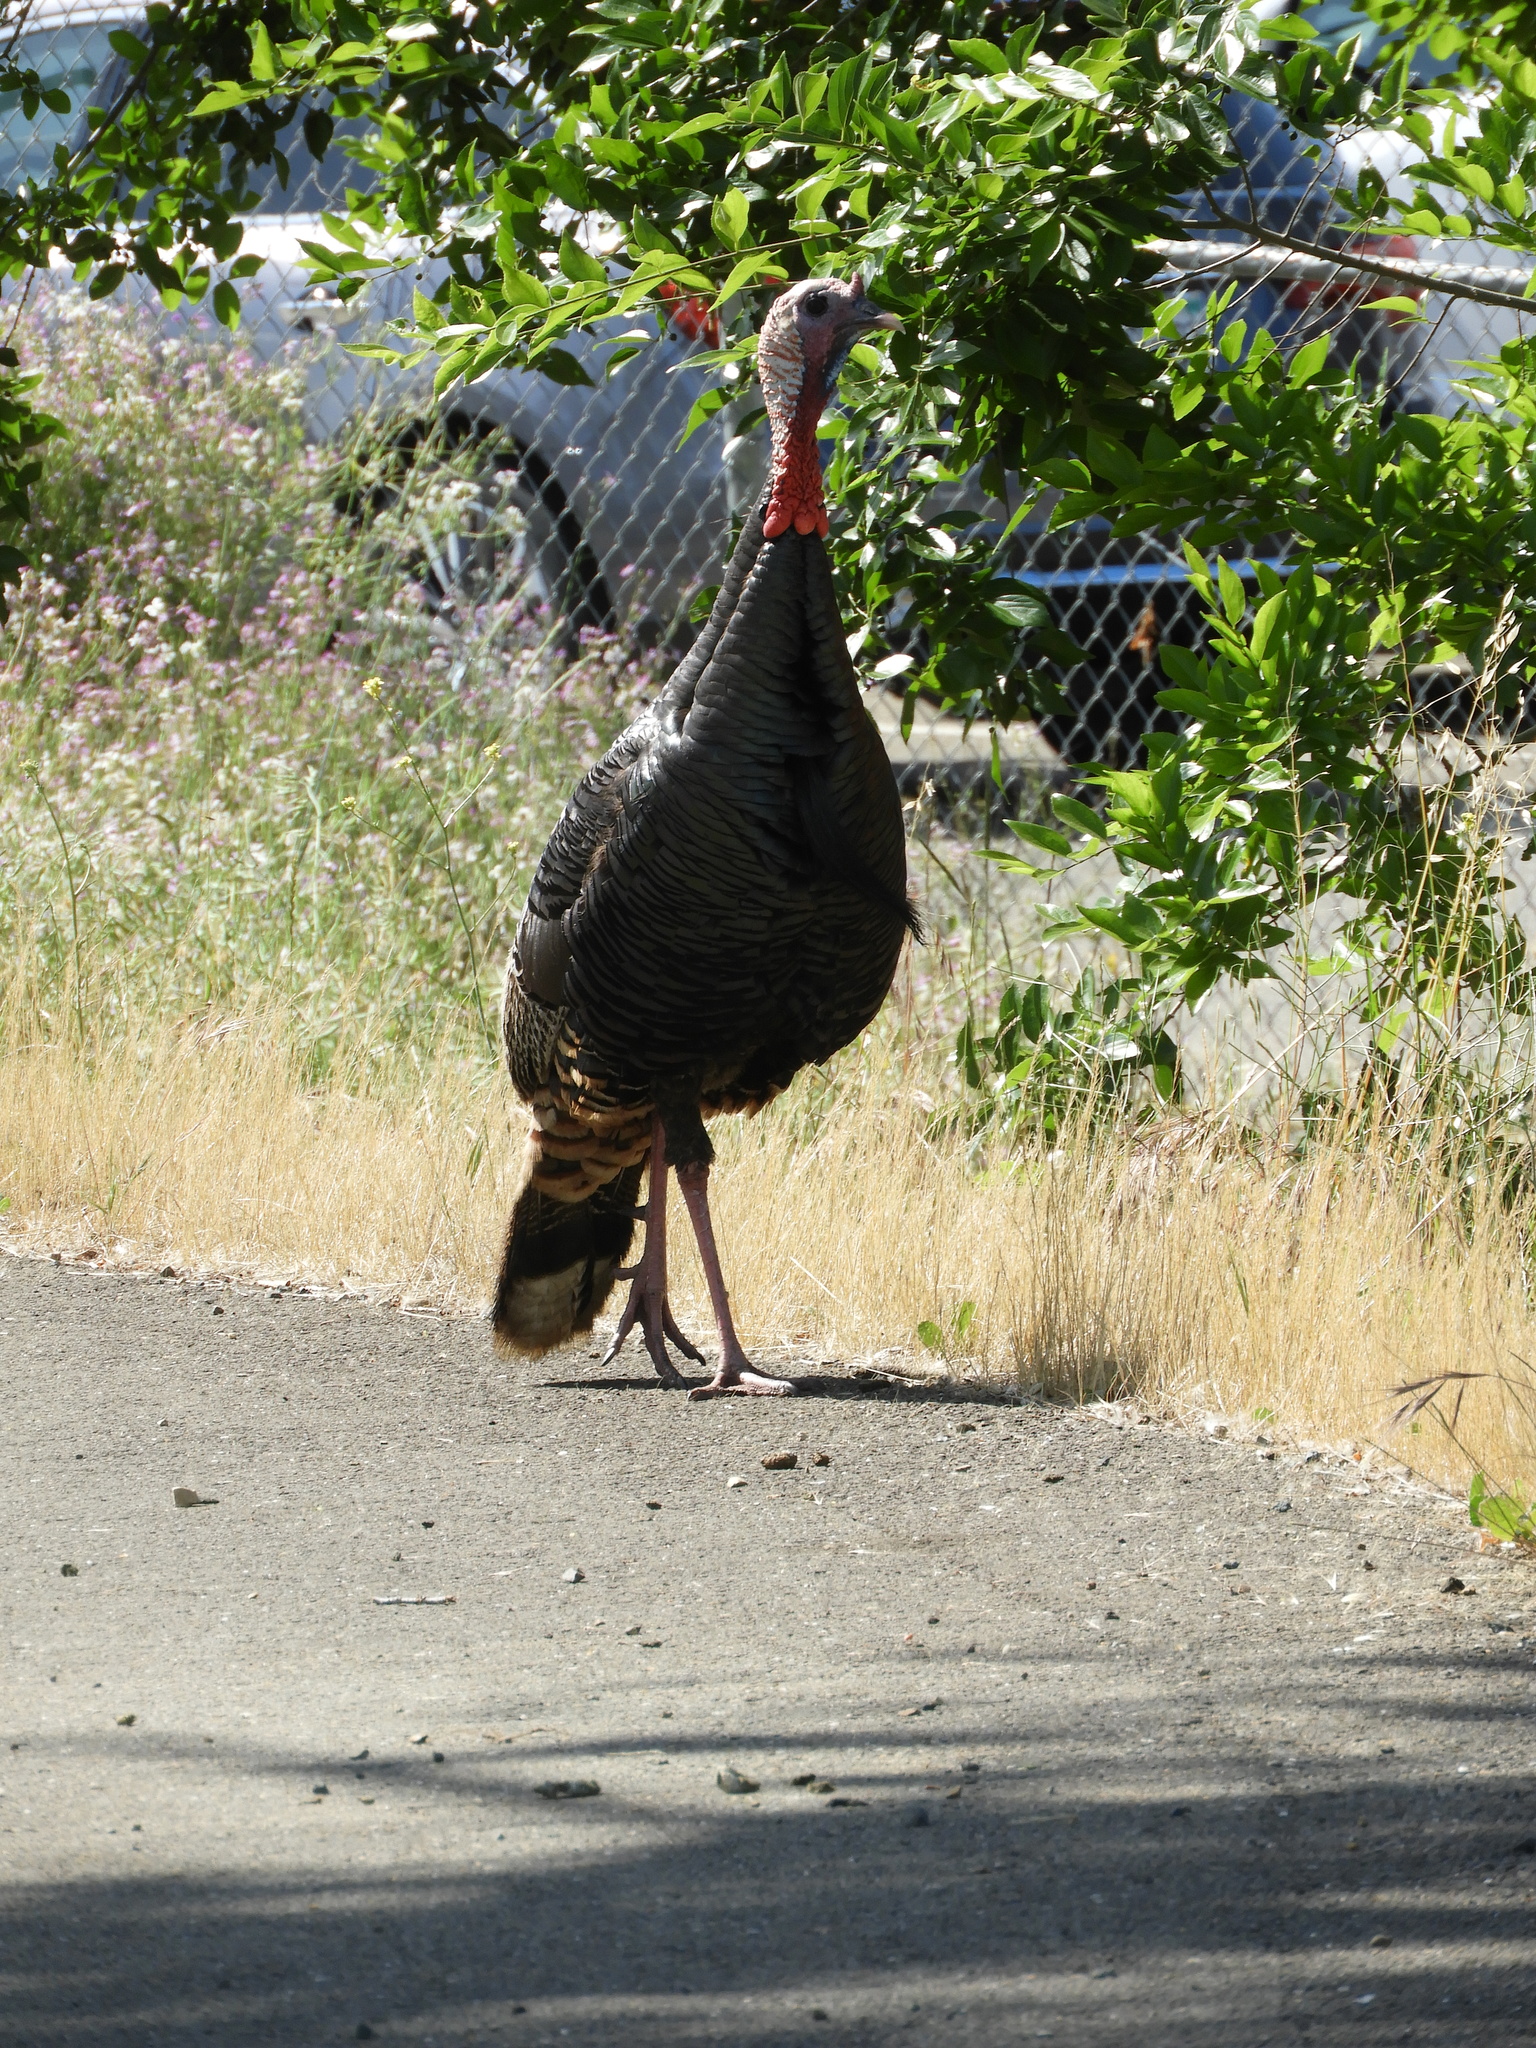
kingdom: Animalia
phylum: Chordata
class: Aves
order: Galliformes
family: Phasianidae
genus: Meleagris
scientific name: Meleagris gallopavo
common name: Wild turkey
